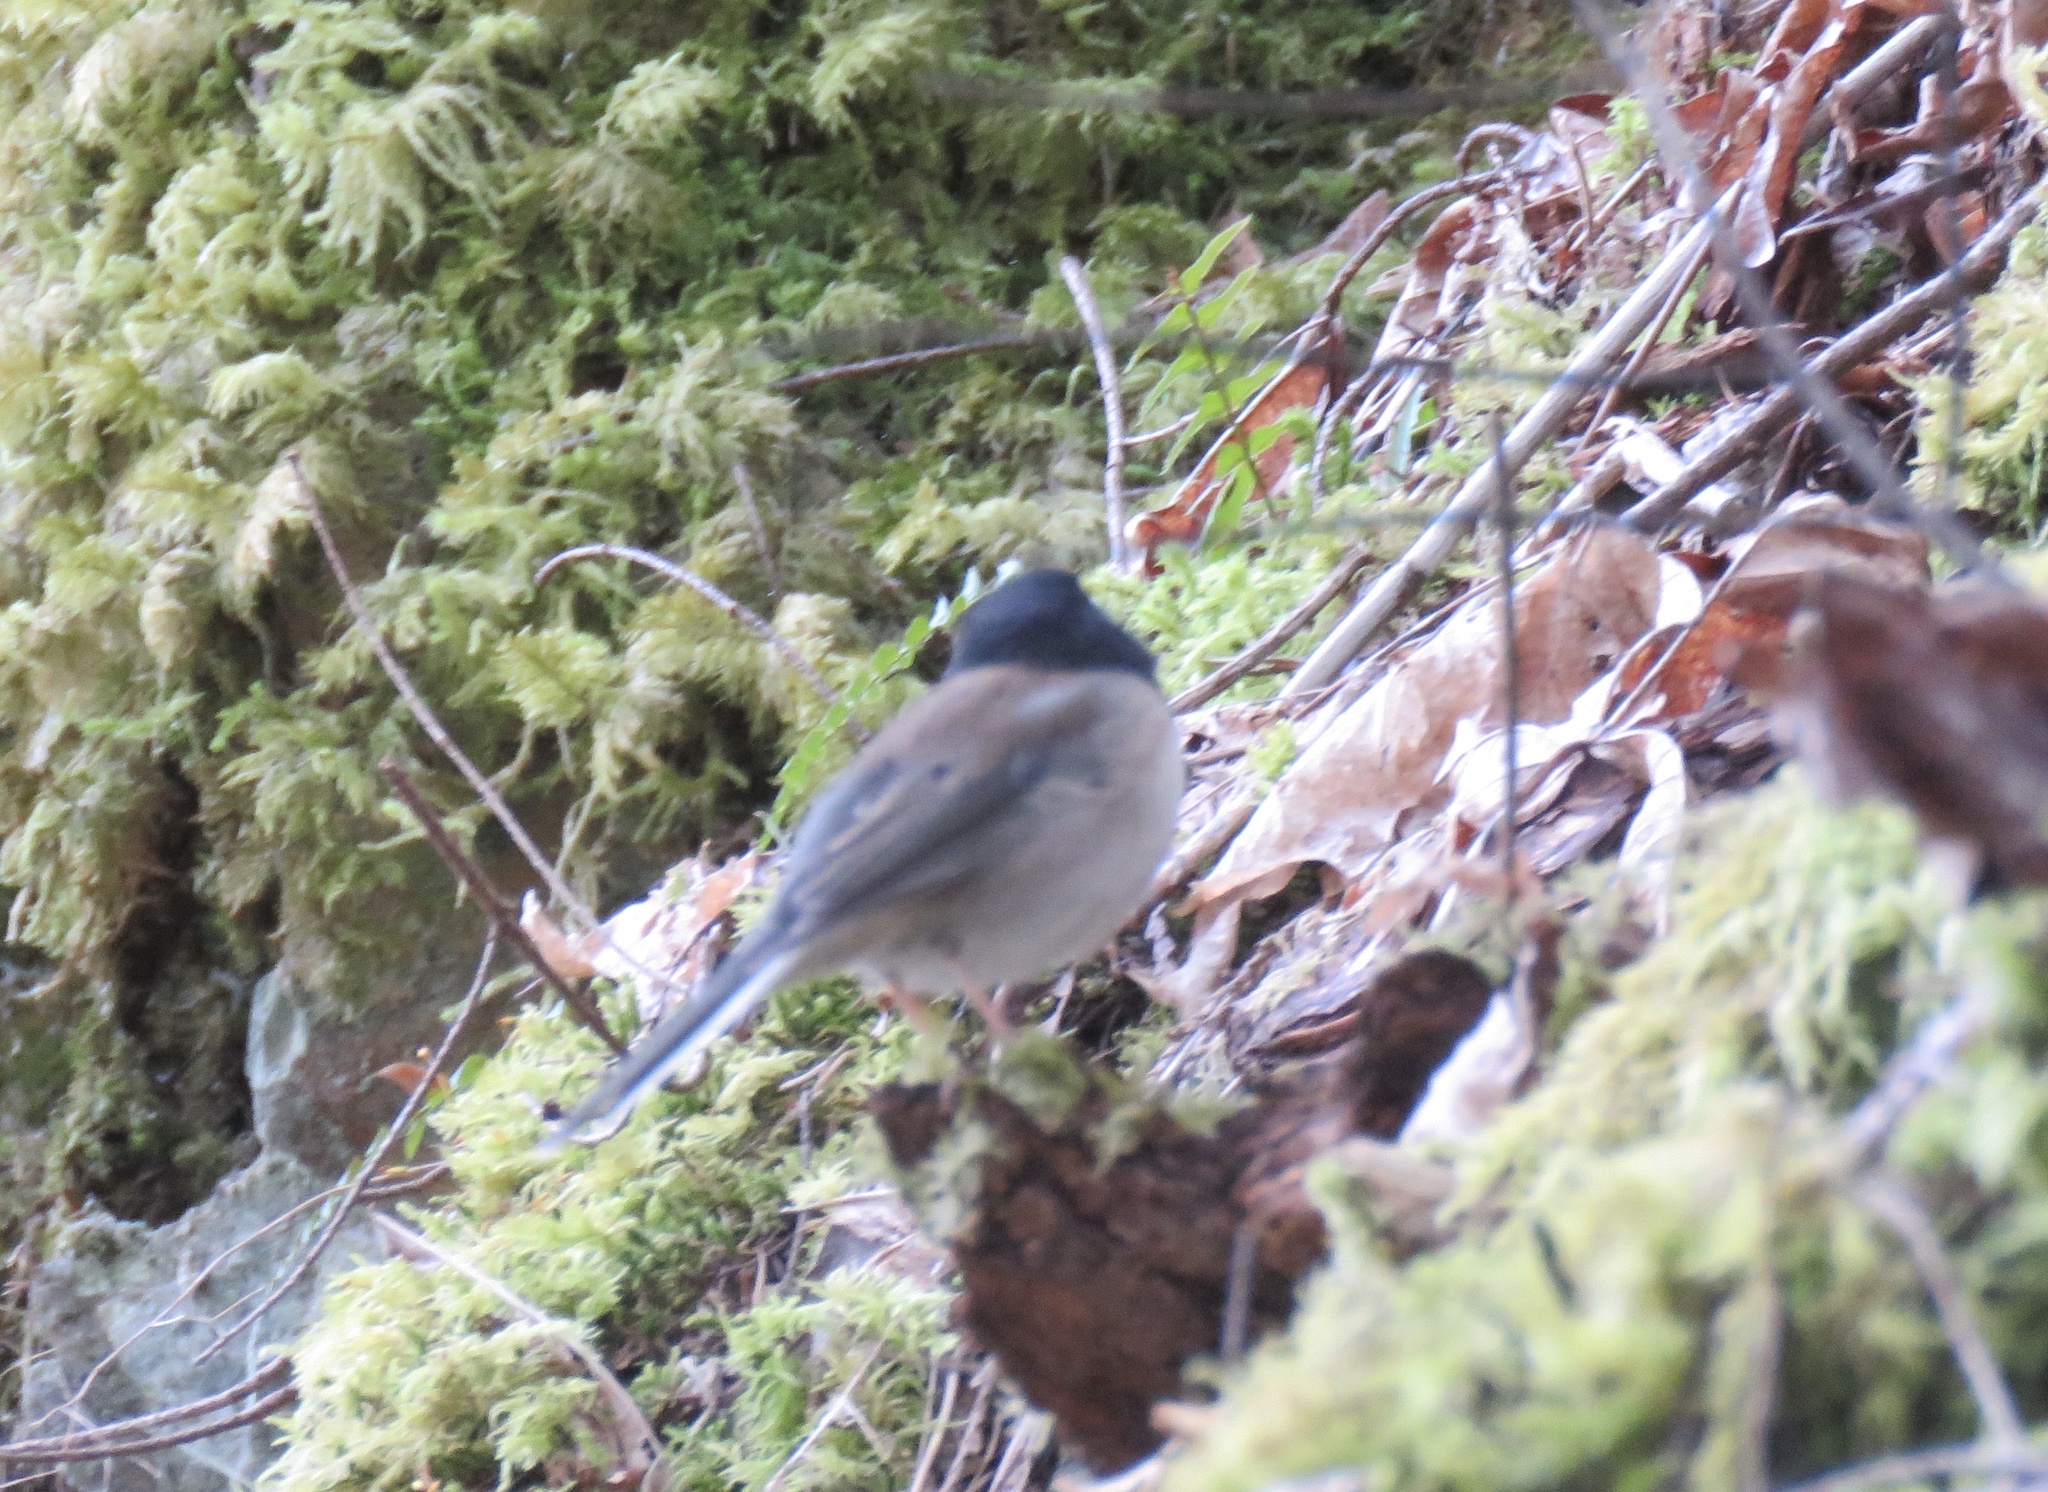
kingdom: Animalia
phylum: Chordata
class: Aves
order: Passeriformes
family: Passerellidae
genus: Junco
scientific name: Junco hyemalis
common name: Dark-eyed junco
